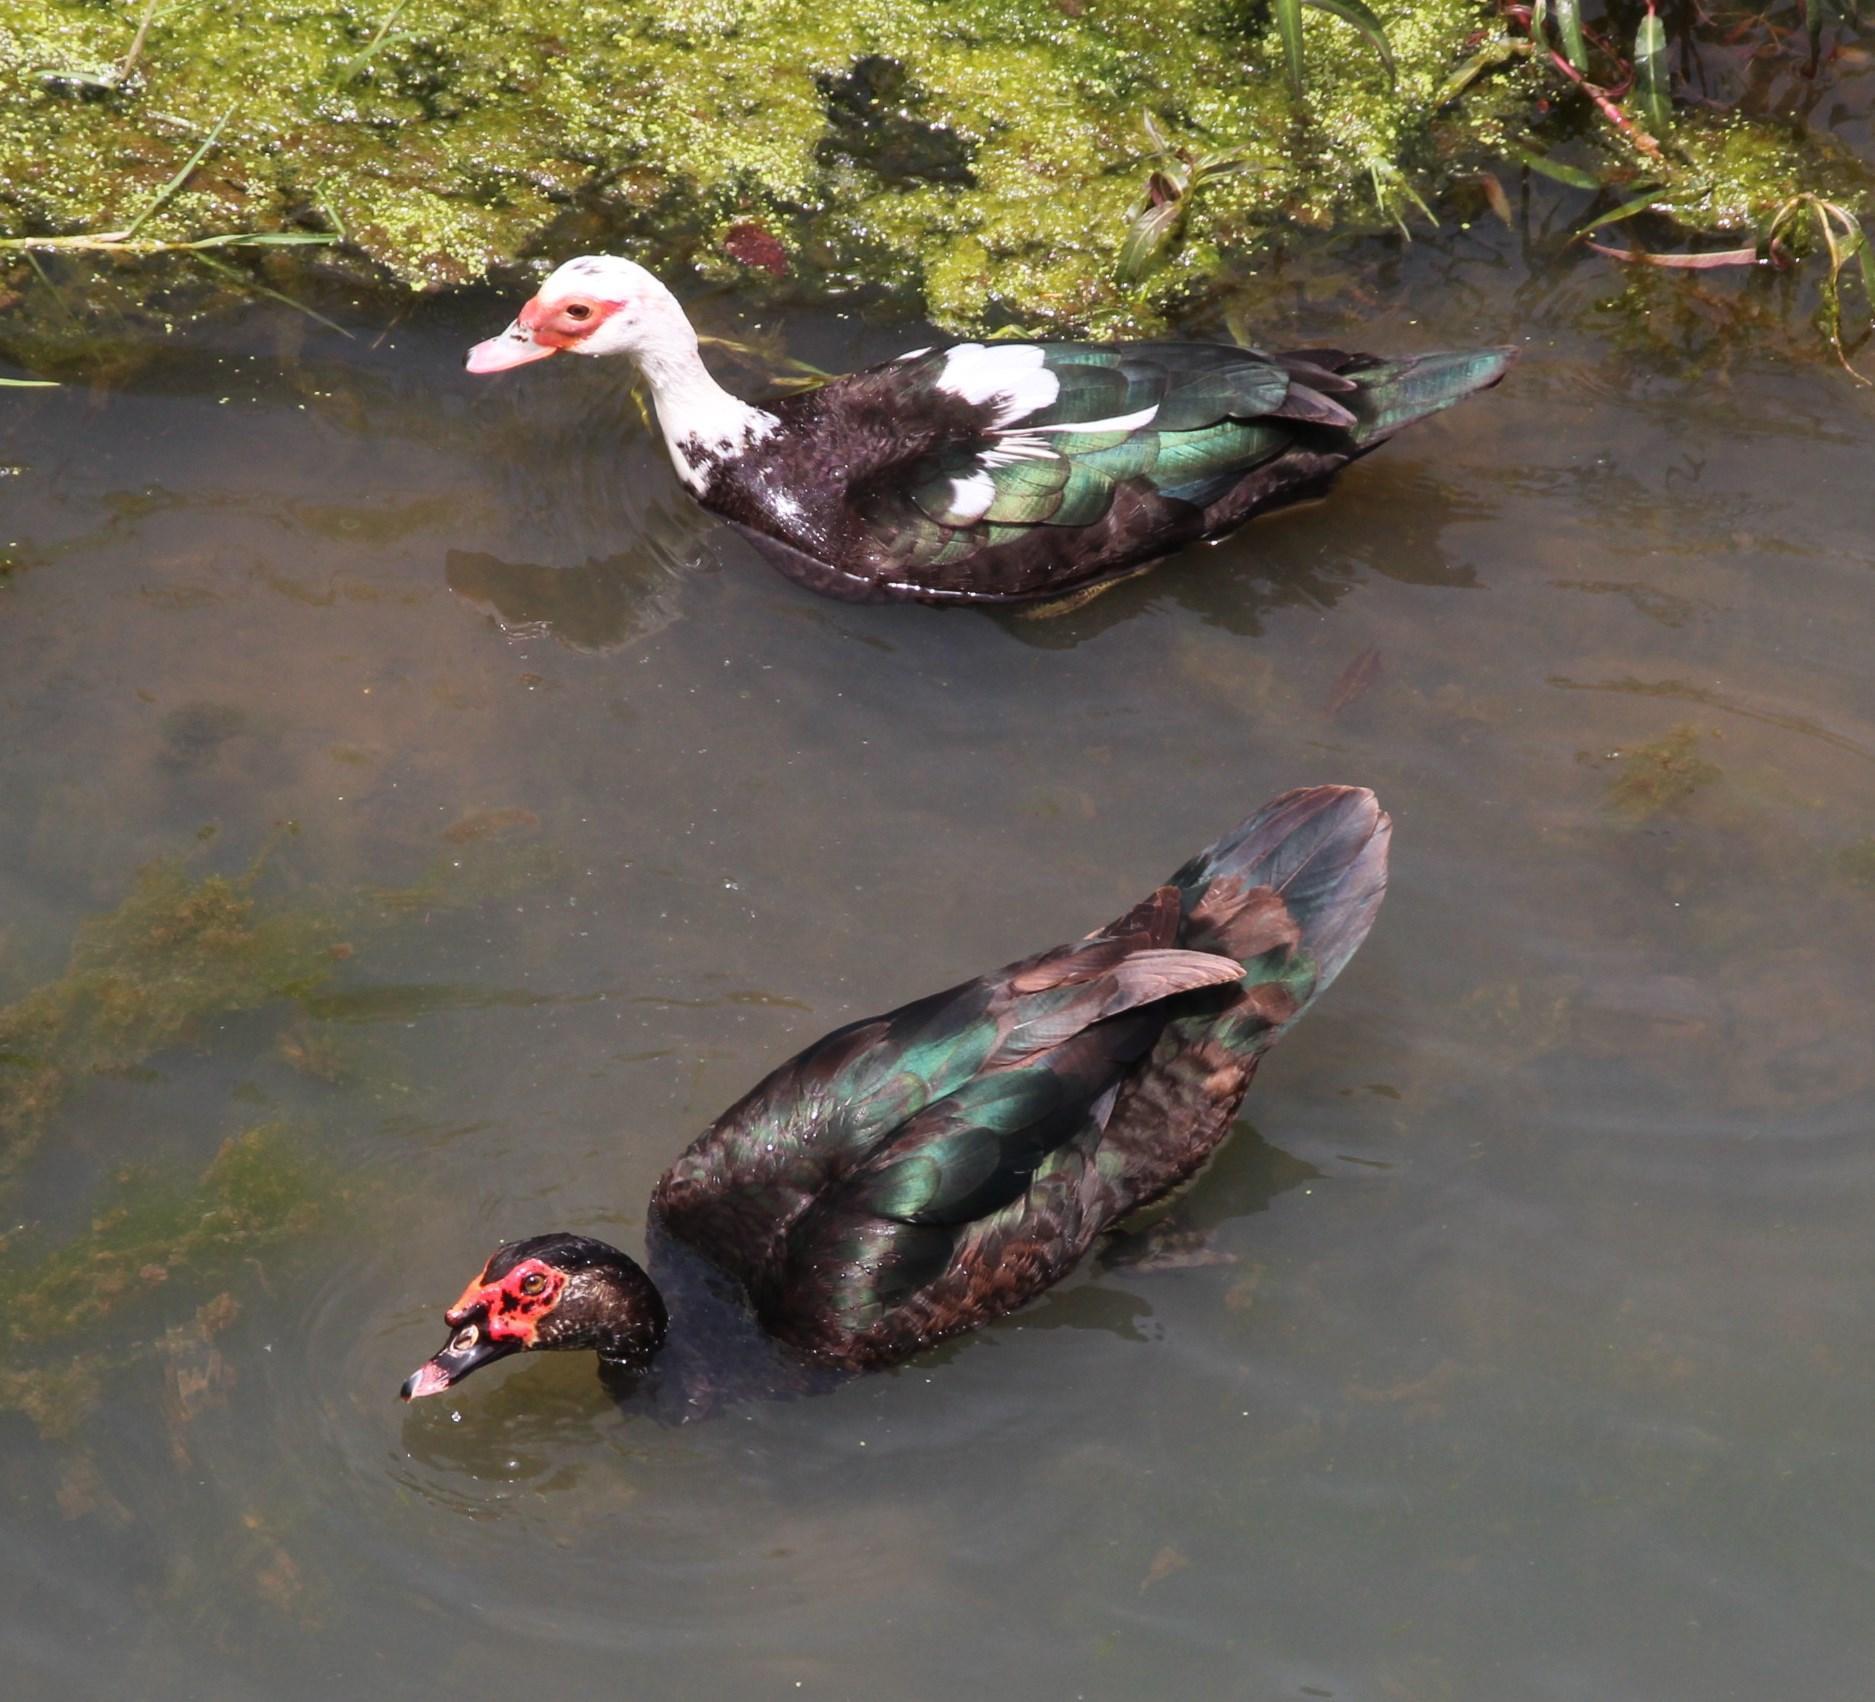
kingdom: Animalia
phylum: Chordata
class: Aves
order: Anseriformes
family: Anatidae
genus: Cairina
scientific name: Cairina moschata
